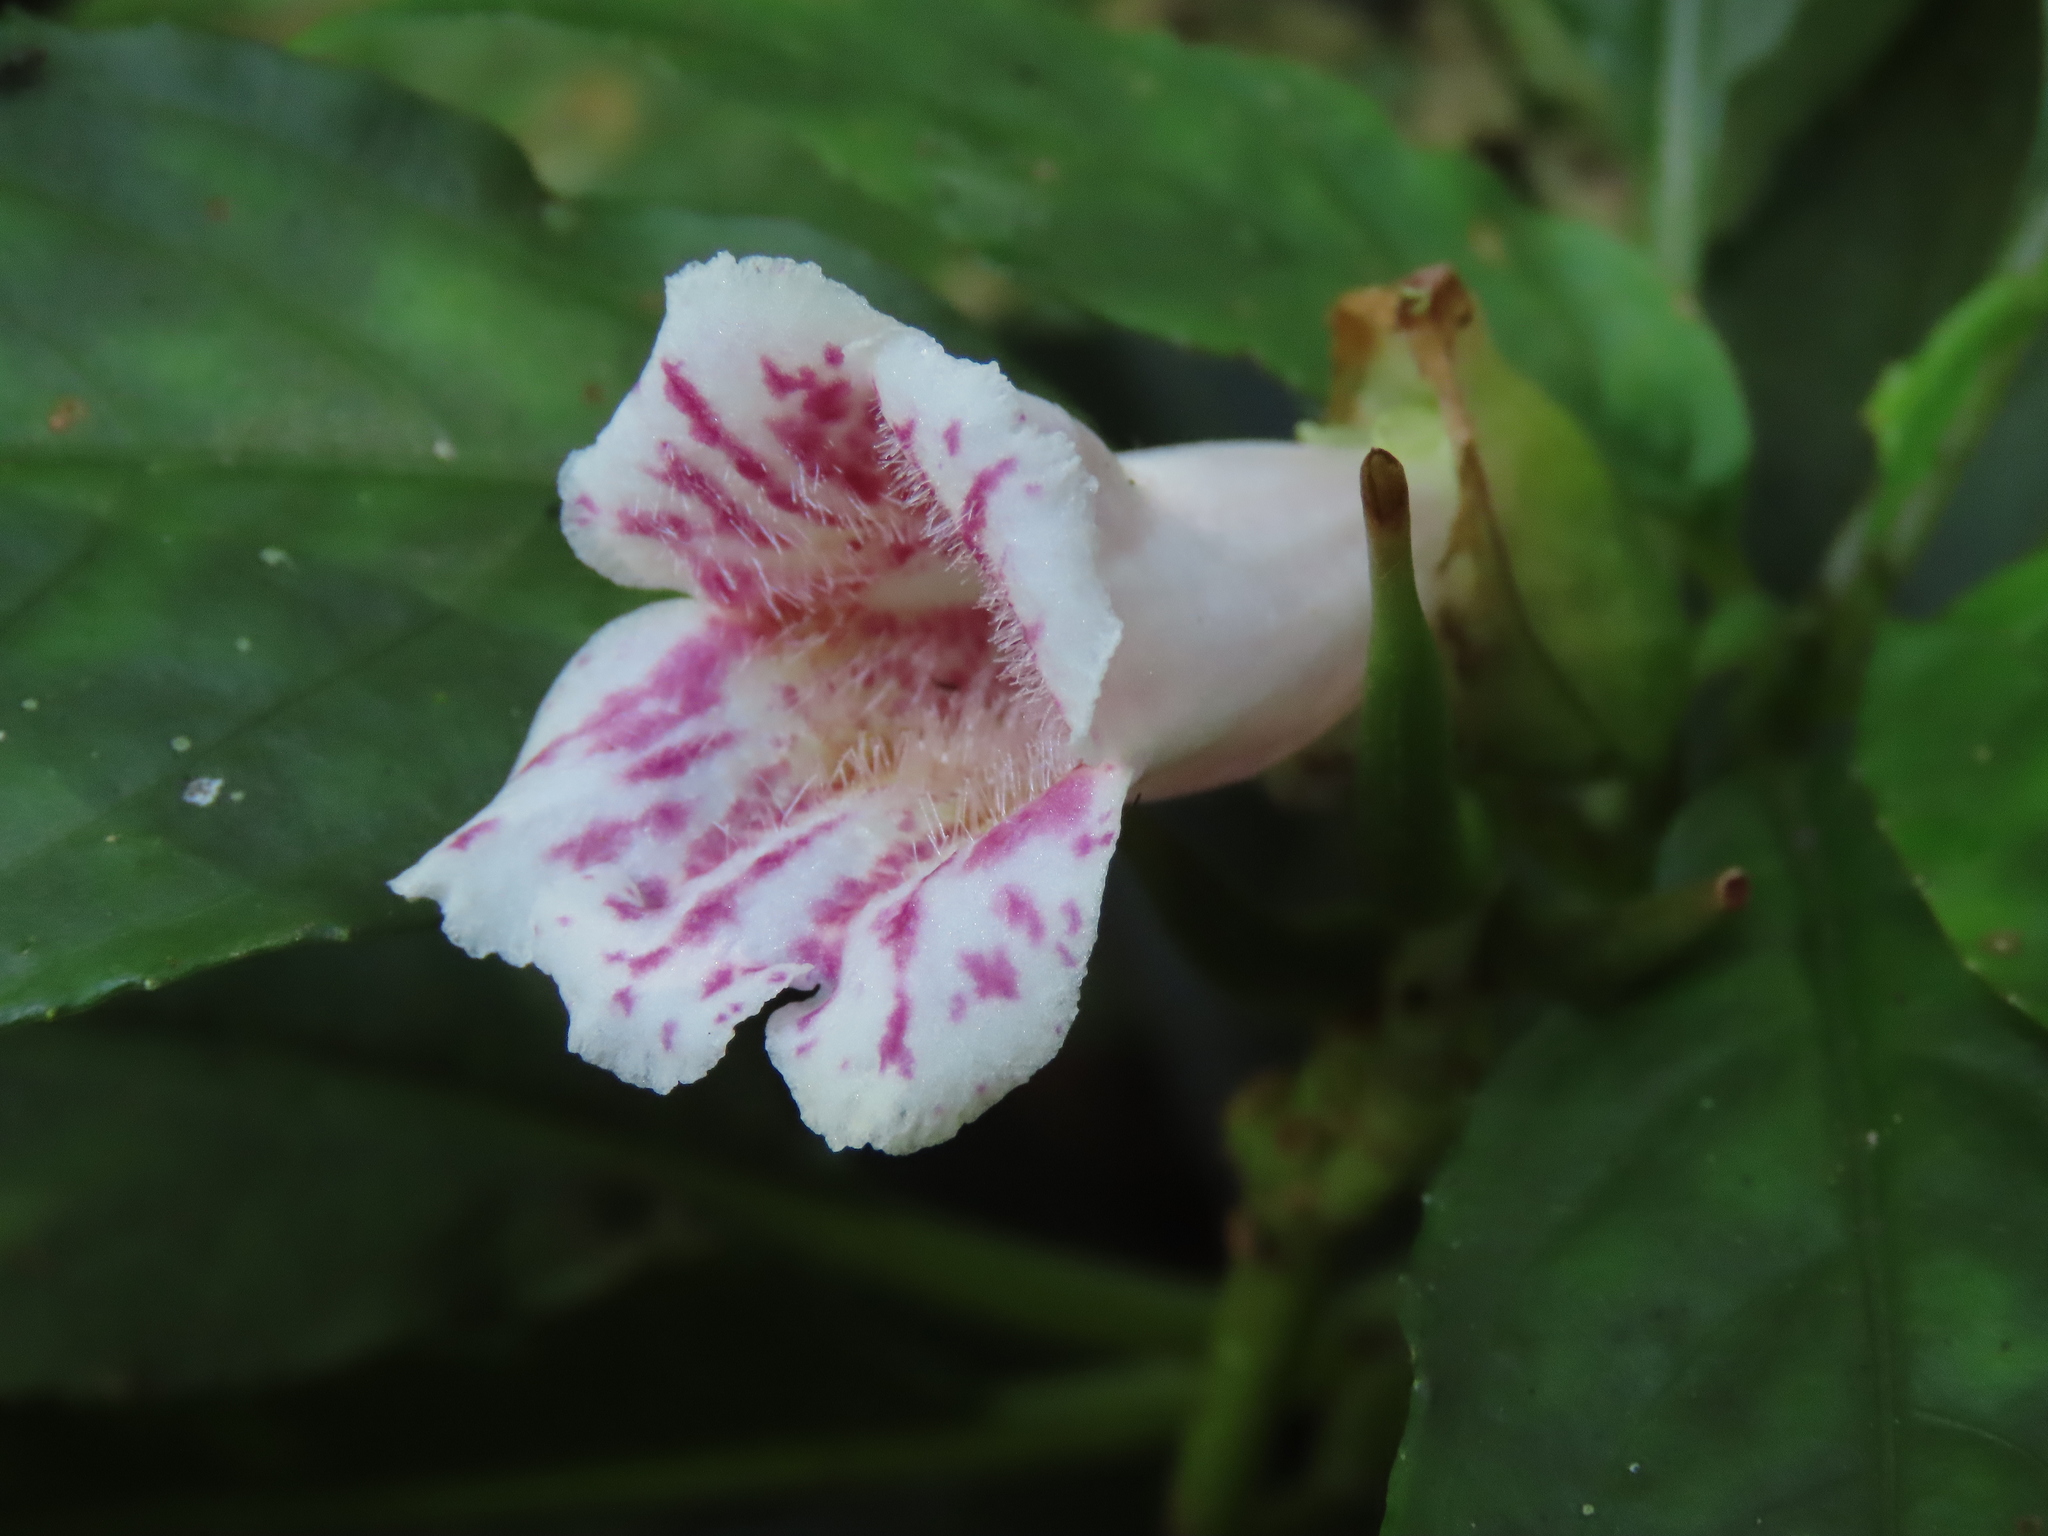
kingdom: Plantae
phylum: Tracheophyta
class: Magnoliopsida
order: Lamiales
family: Gesneriaceae
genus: Hemiboea
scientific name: Hemiboea bicornuta
